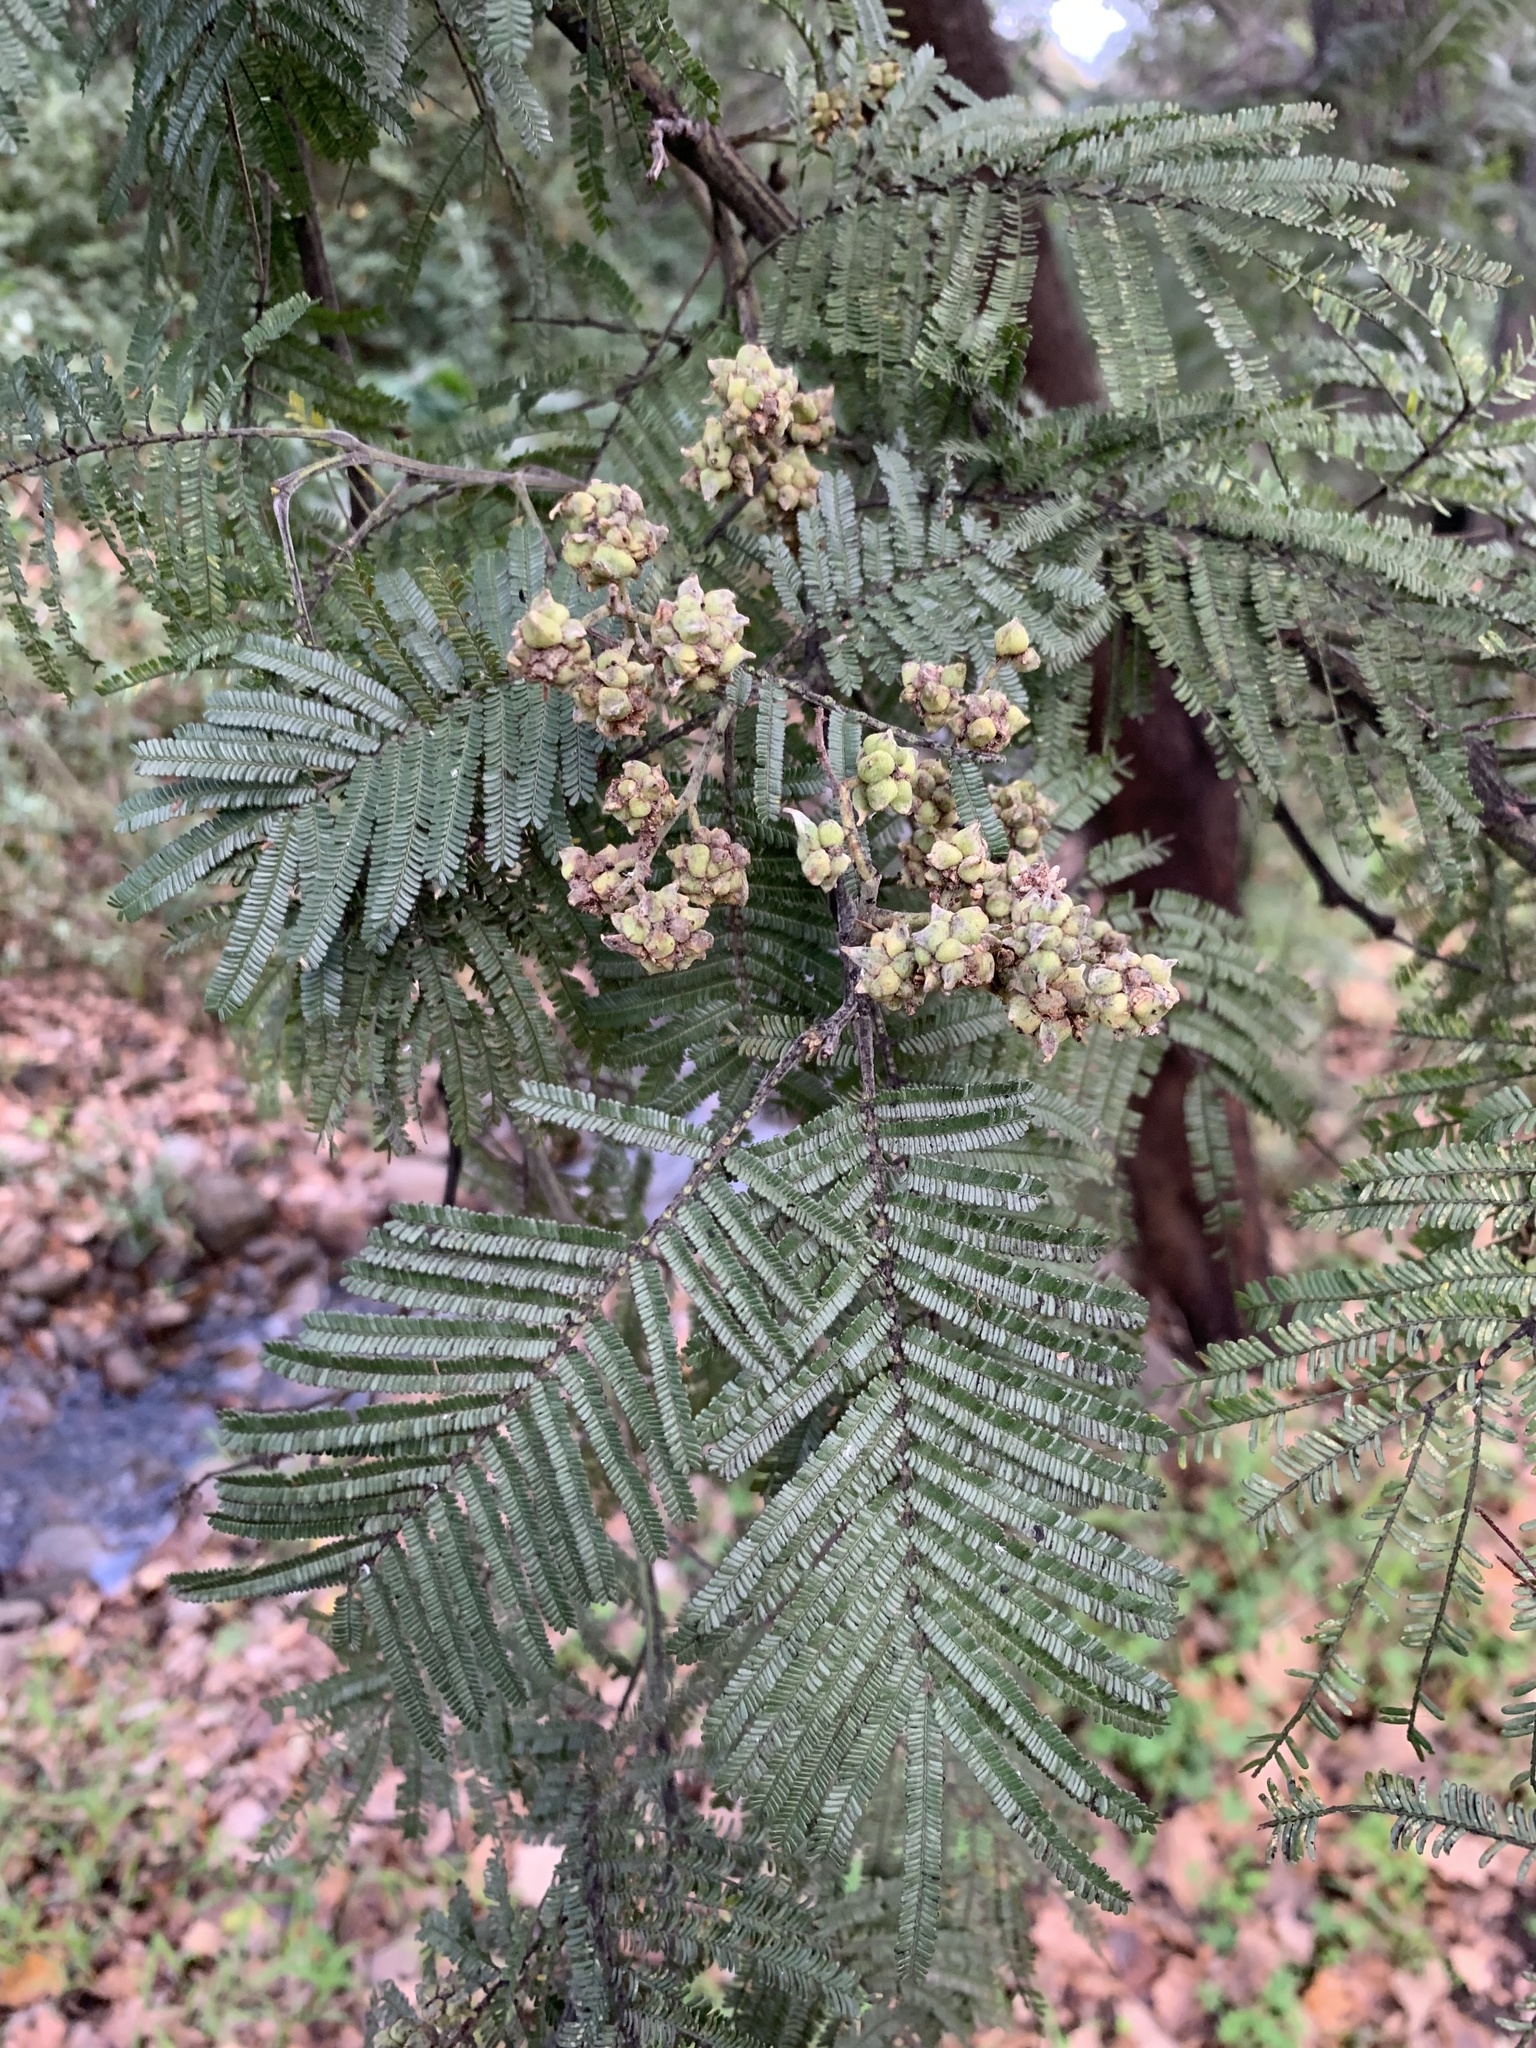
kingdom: Animalia
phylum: Arthropoda
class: Insecta
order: Diptera
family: Cecidomyiidae
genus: Dasineura
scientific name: Dasineura rubiformis
